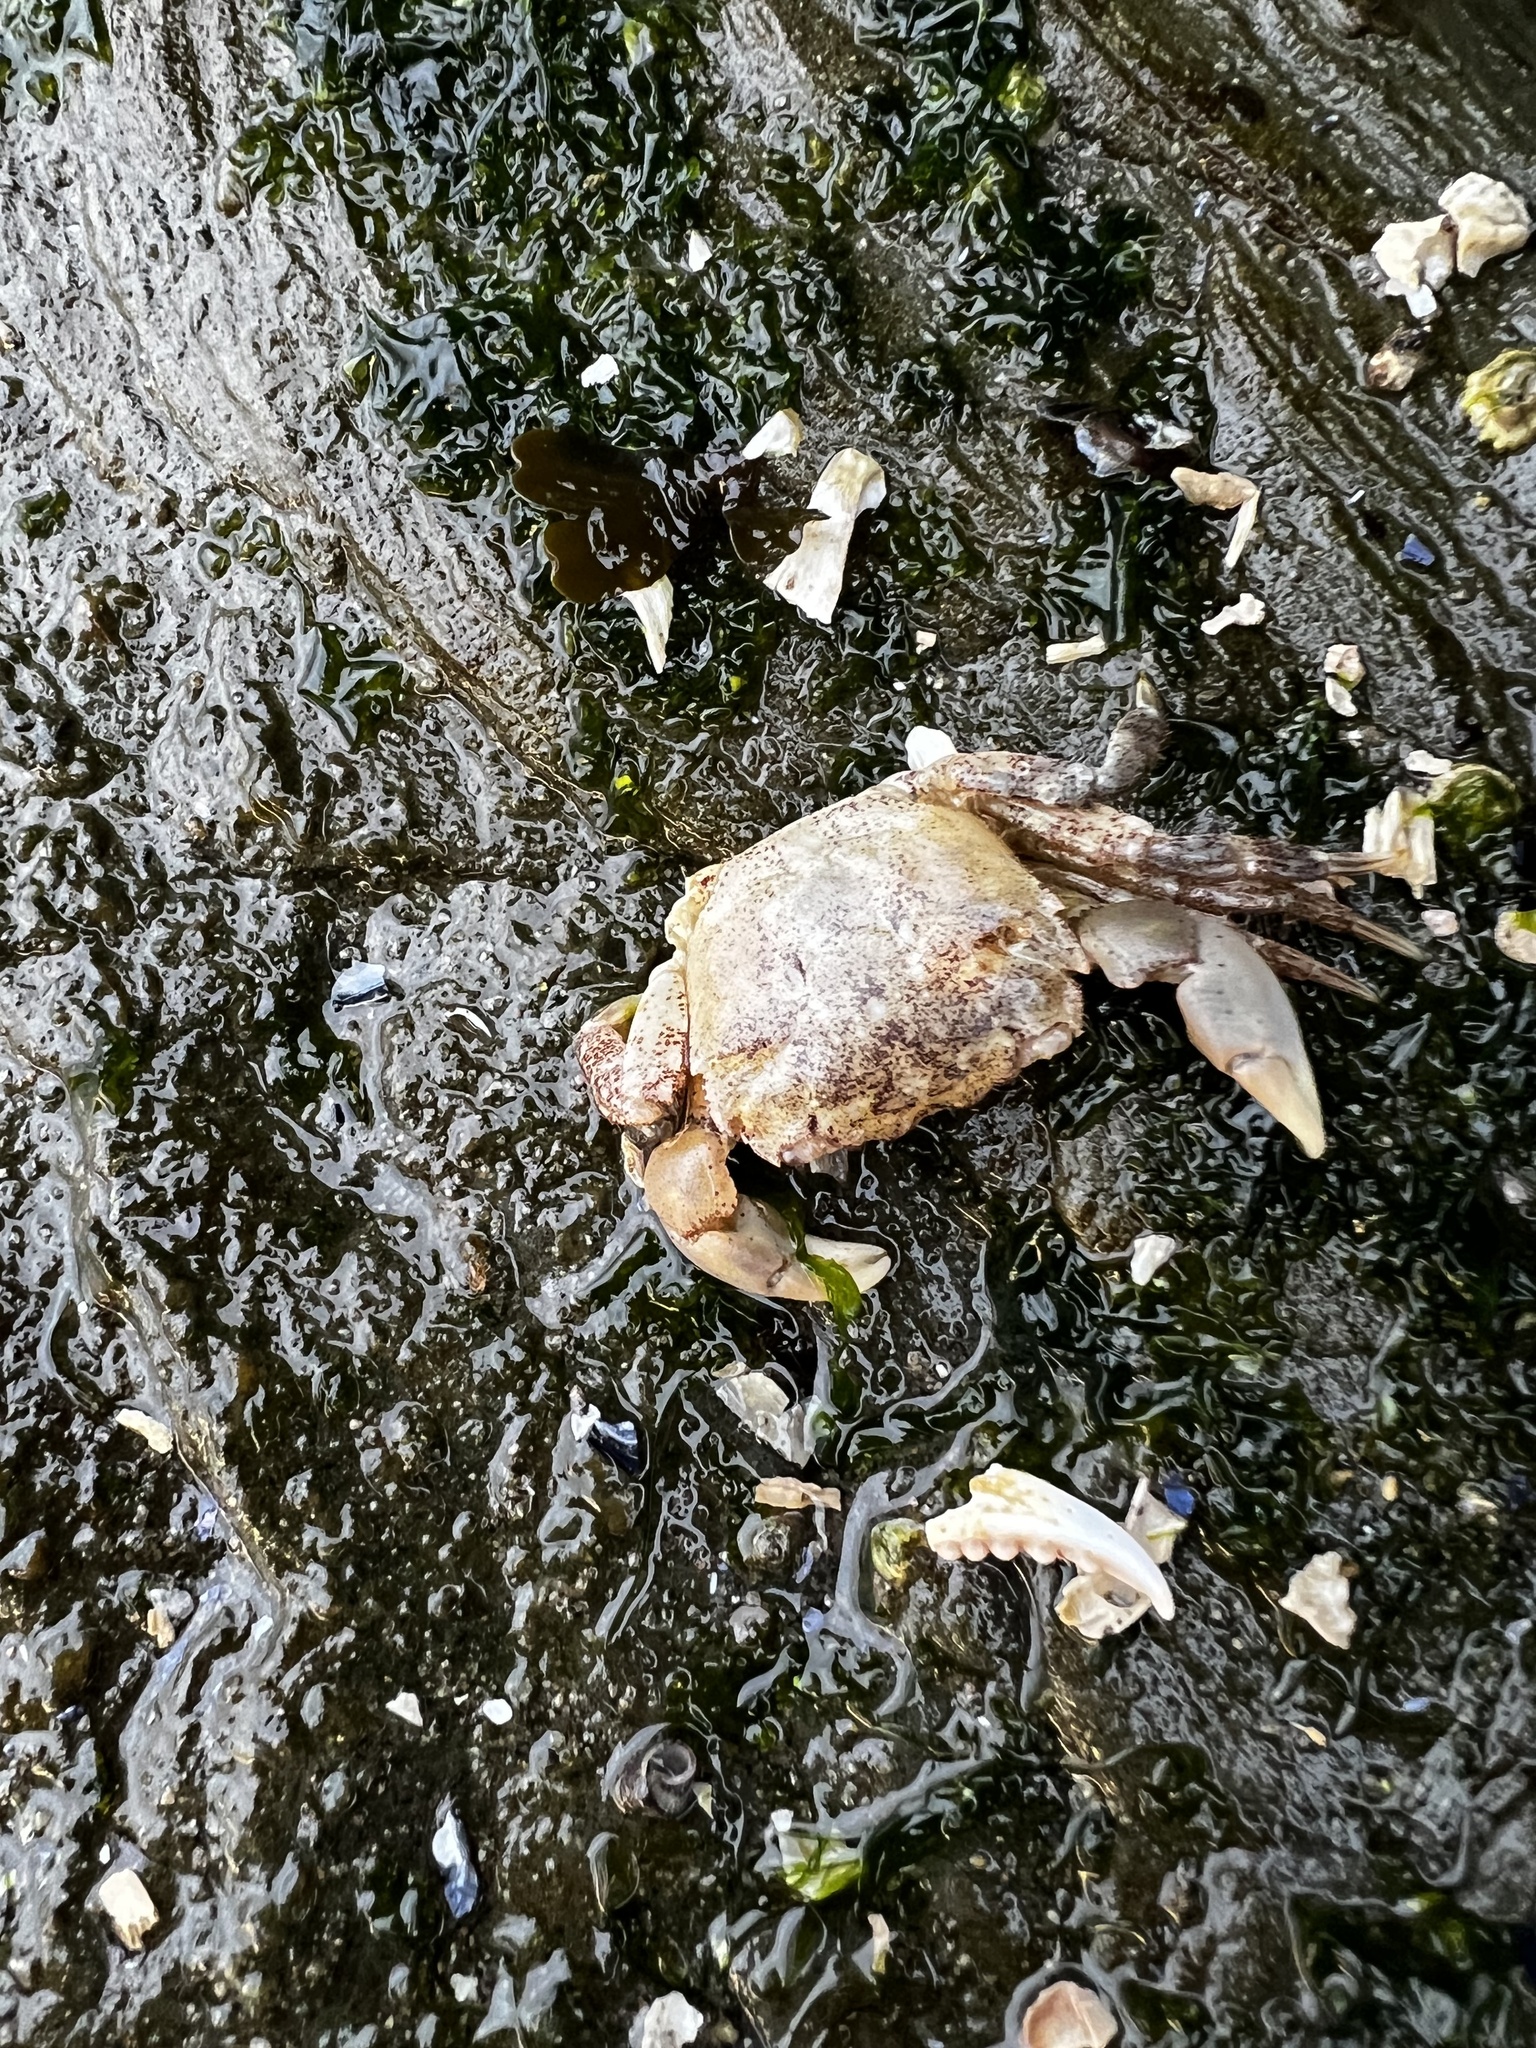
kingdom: Animalia
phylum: Arthropoda
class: Malacostraca
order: Decapoda
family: Varunidae
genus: Hemigrapsus
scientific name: Hemigrapsus oregonensis
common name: Yellow shore crab
